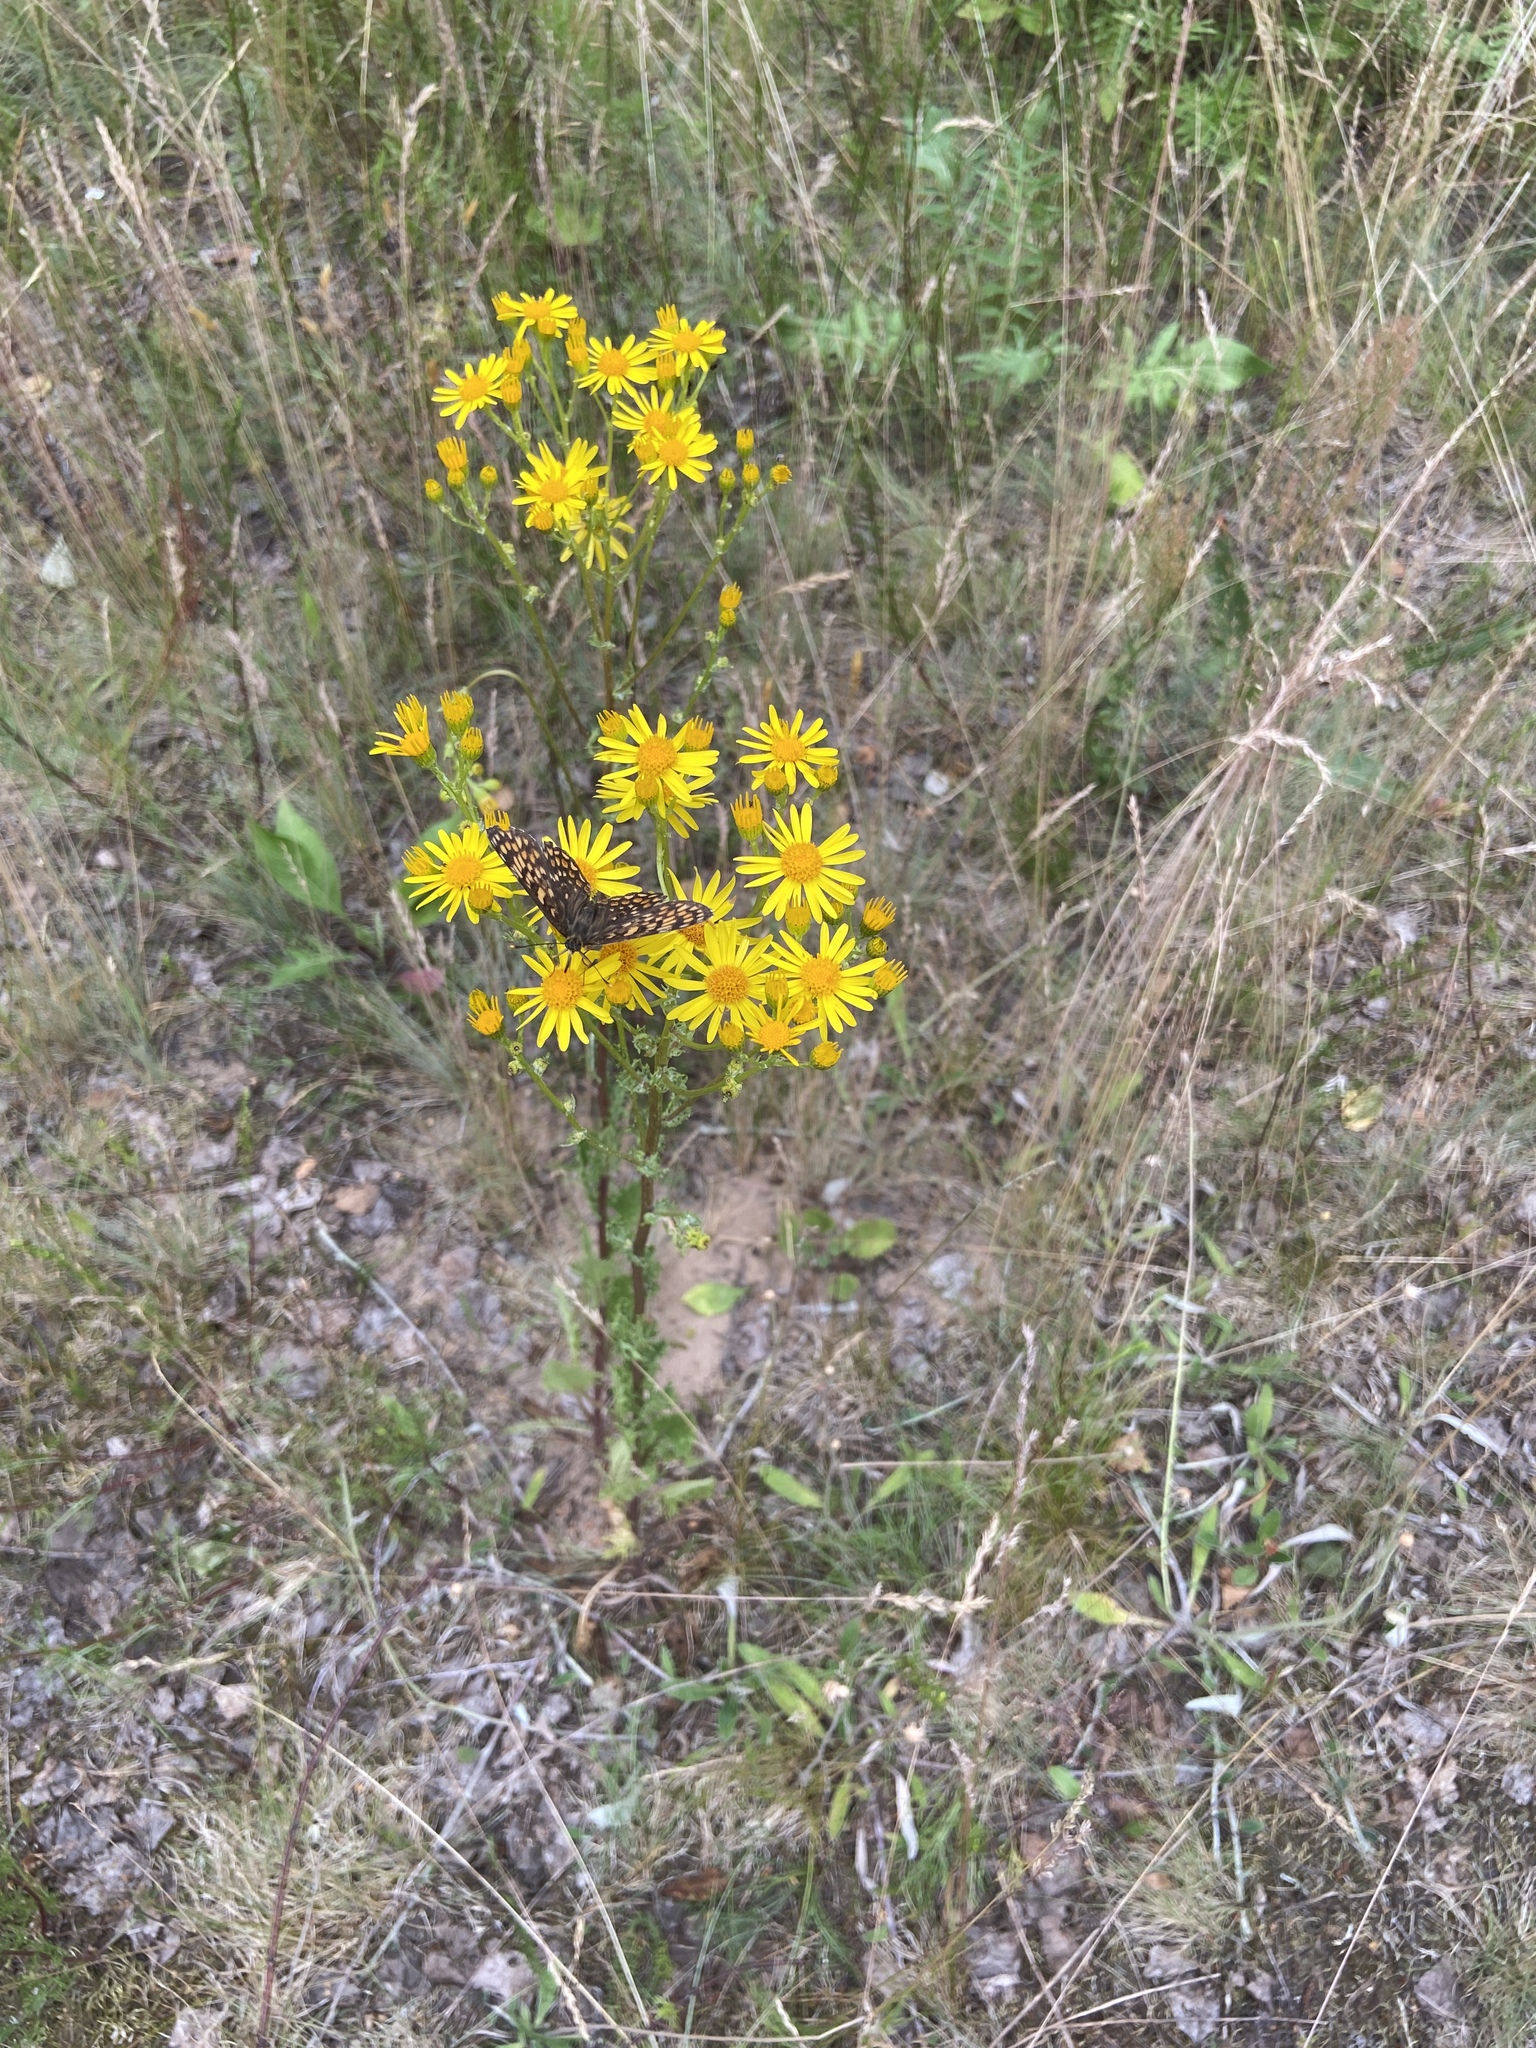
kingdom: Animalia
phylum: Arthropoda
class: Insecta
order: Lepidoptera
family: Nymphalidae
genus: Melitaea
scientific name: Melitaea phoebe
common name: Knapweed fritillary
